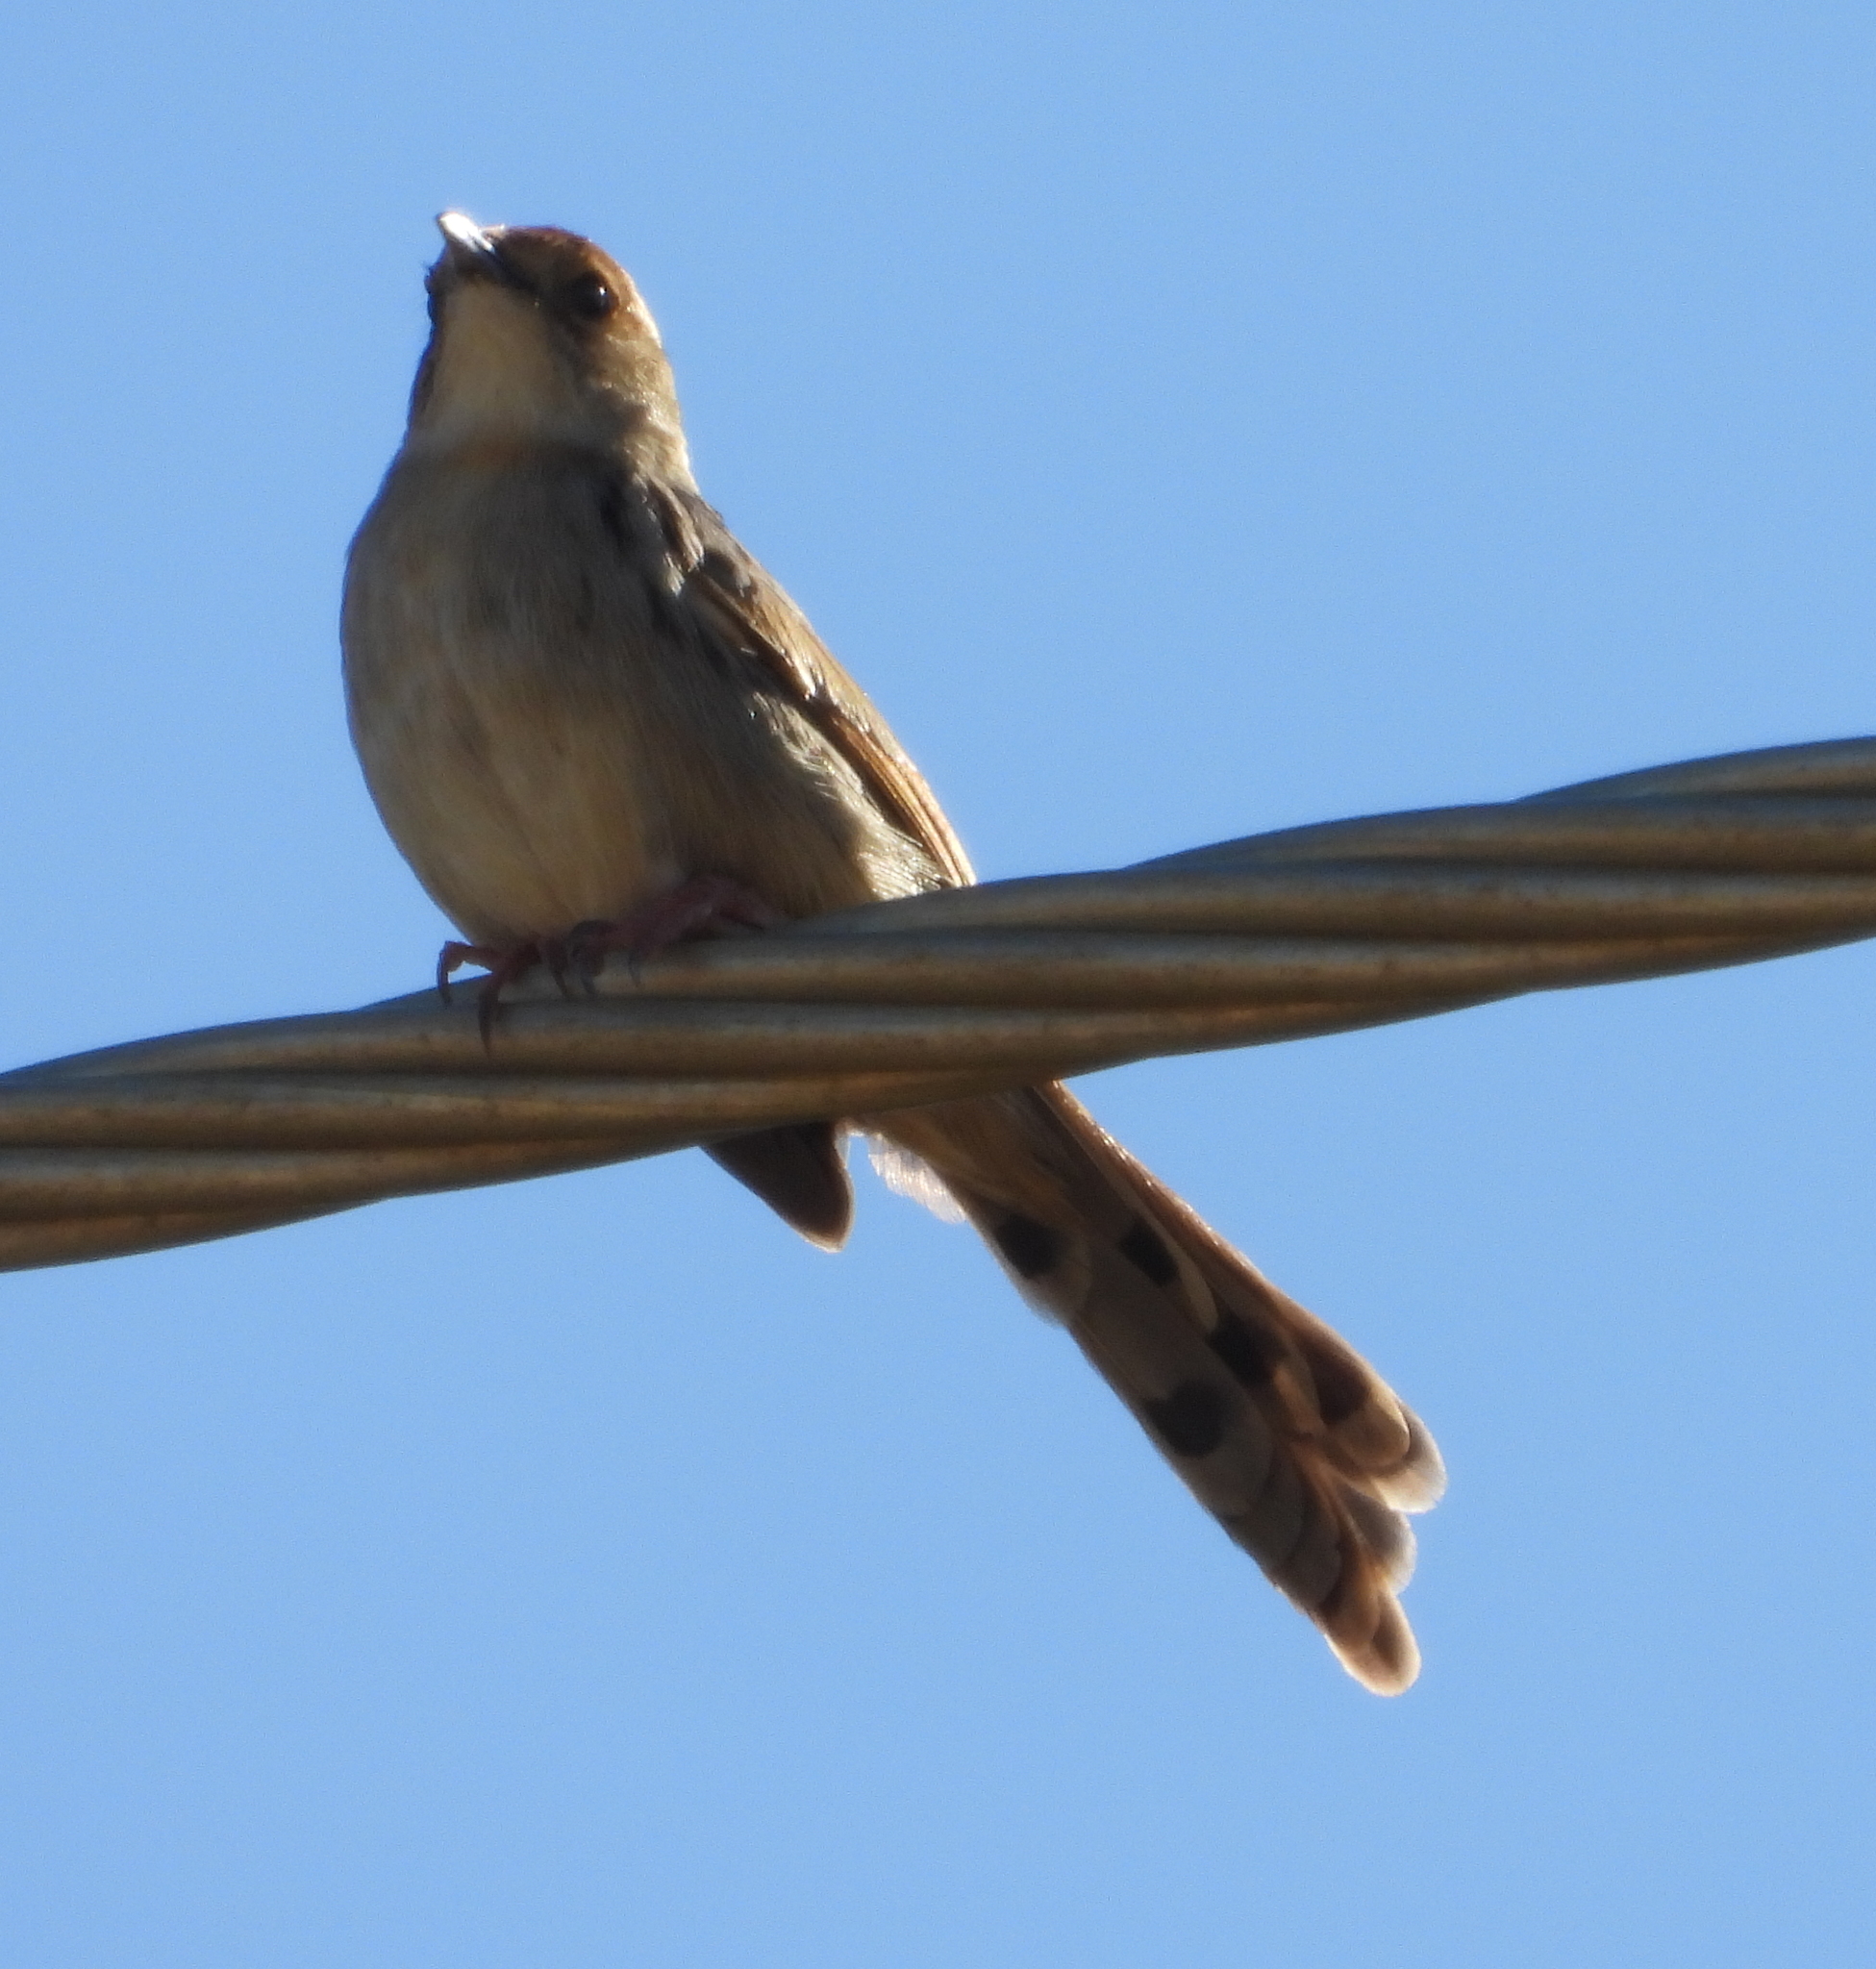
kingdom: Animalia
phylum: Chordata
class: Aves
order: Passeriformes
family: Cisticolidae
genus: Cisticola
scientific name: Cisticola tinniens
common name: Levaillant's cisticola
